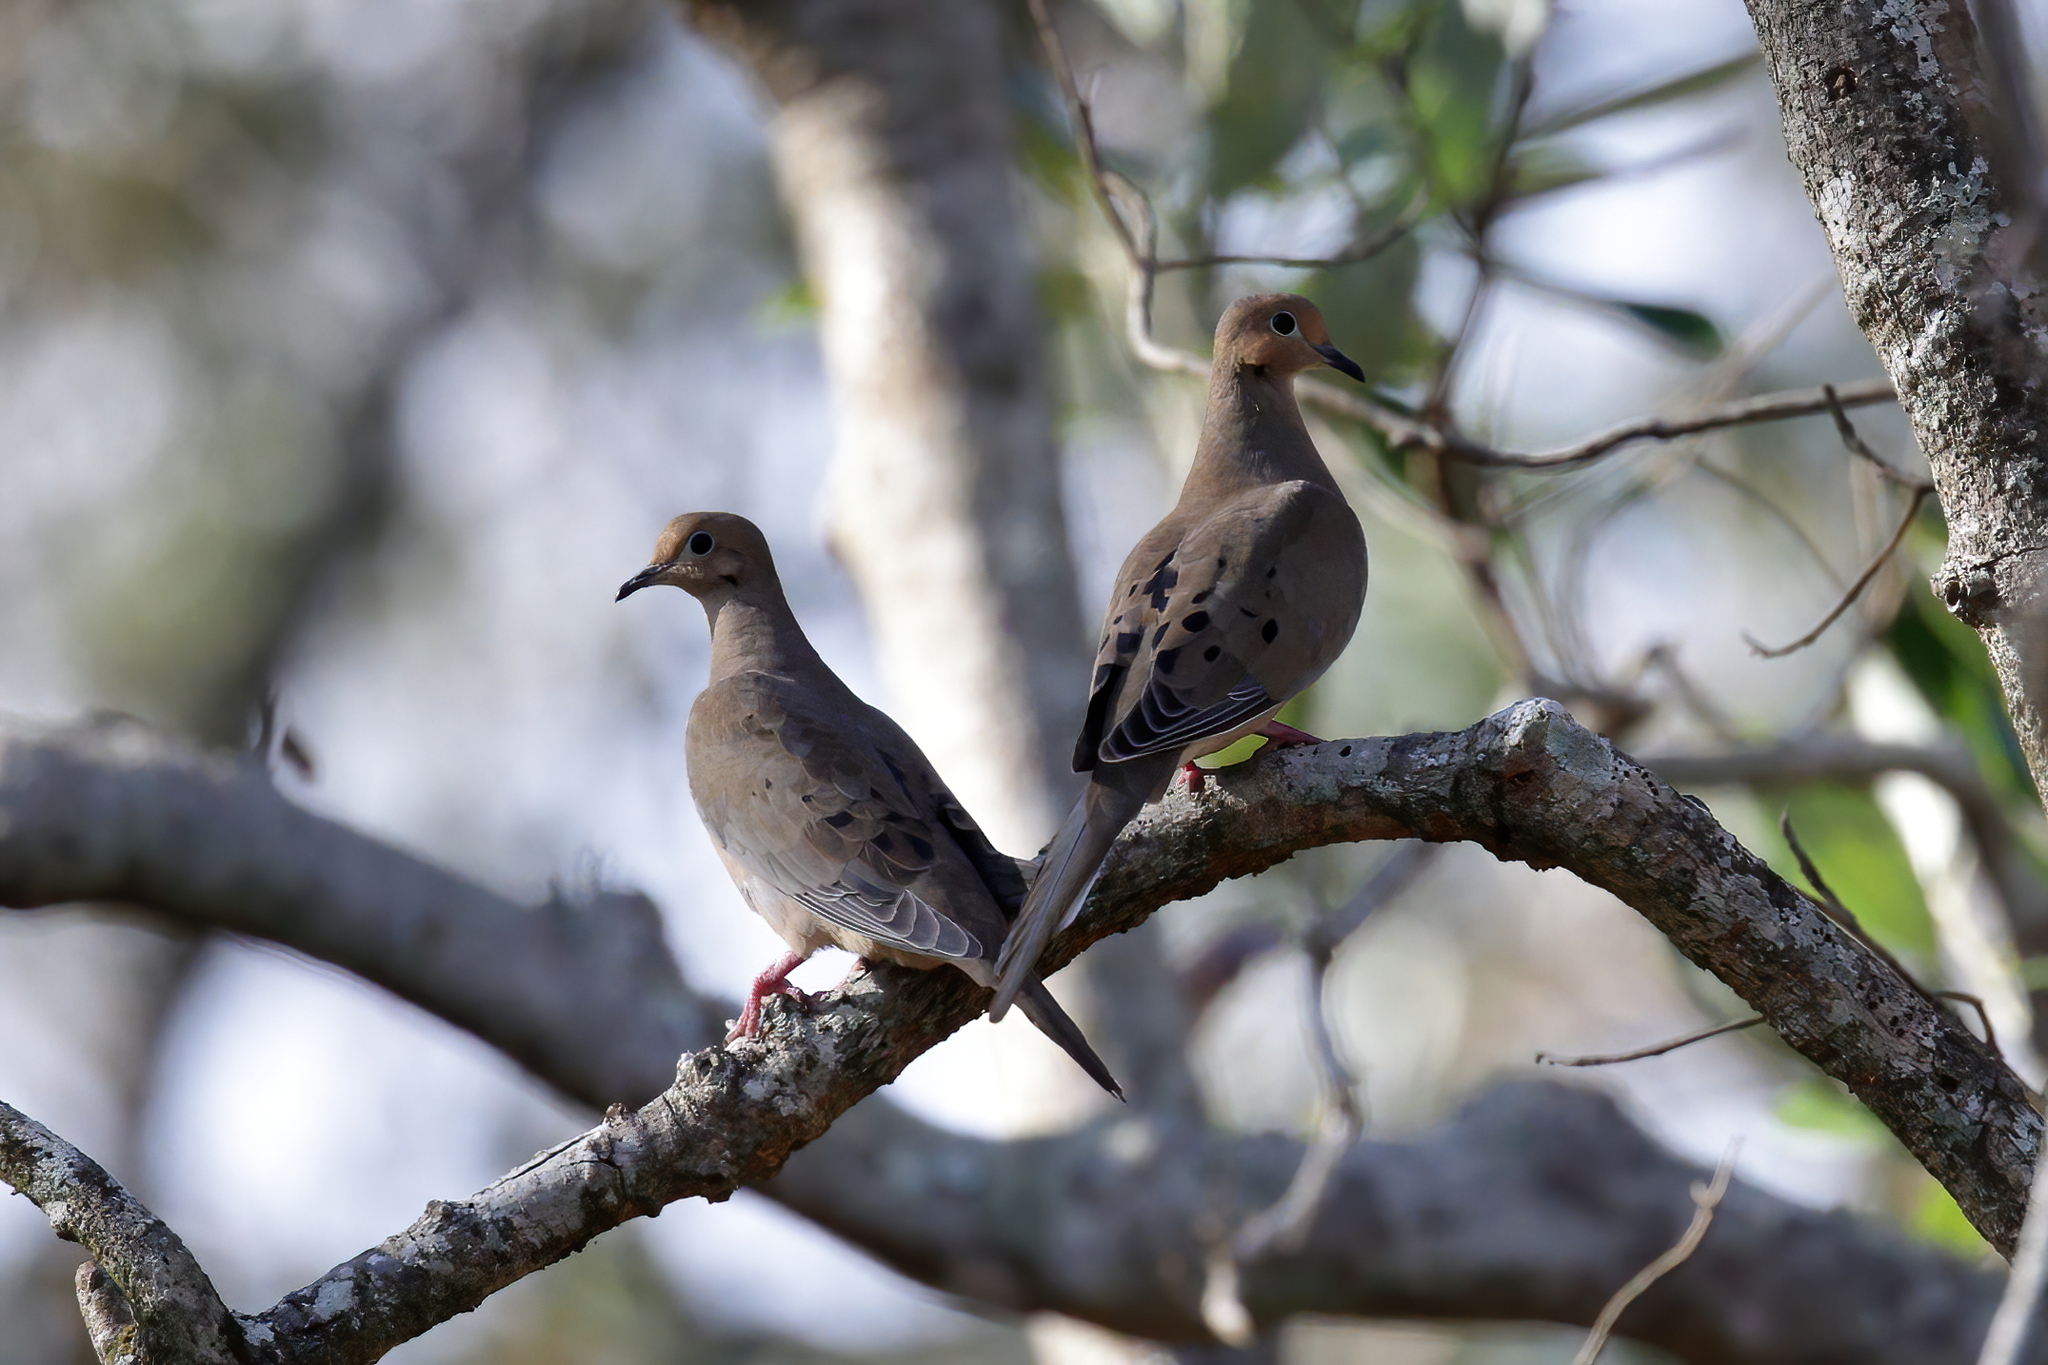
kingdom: Animalia
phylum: Chordata
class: Aves
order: Columbiformes
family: Columbidae
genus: Zenaida
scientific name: Zenaida macroura
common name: Mourning dove
